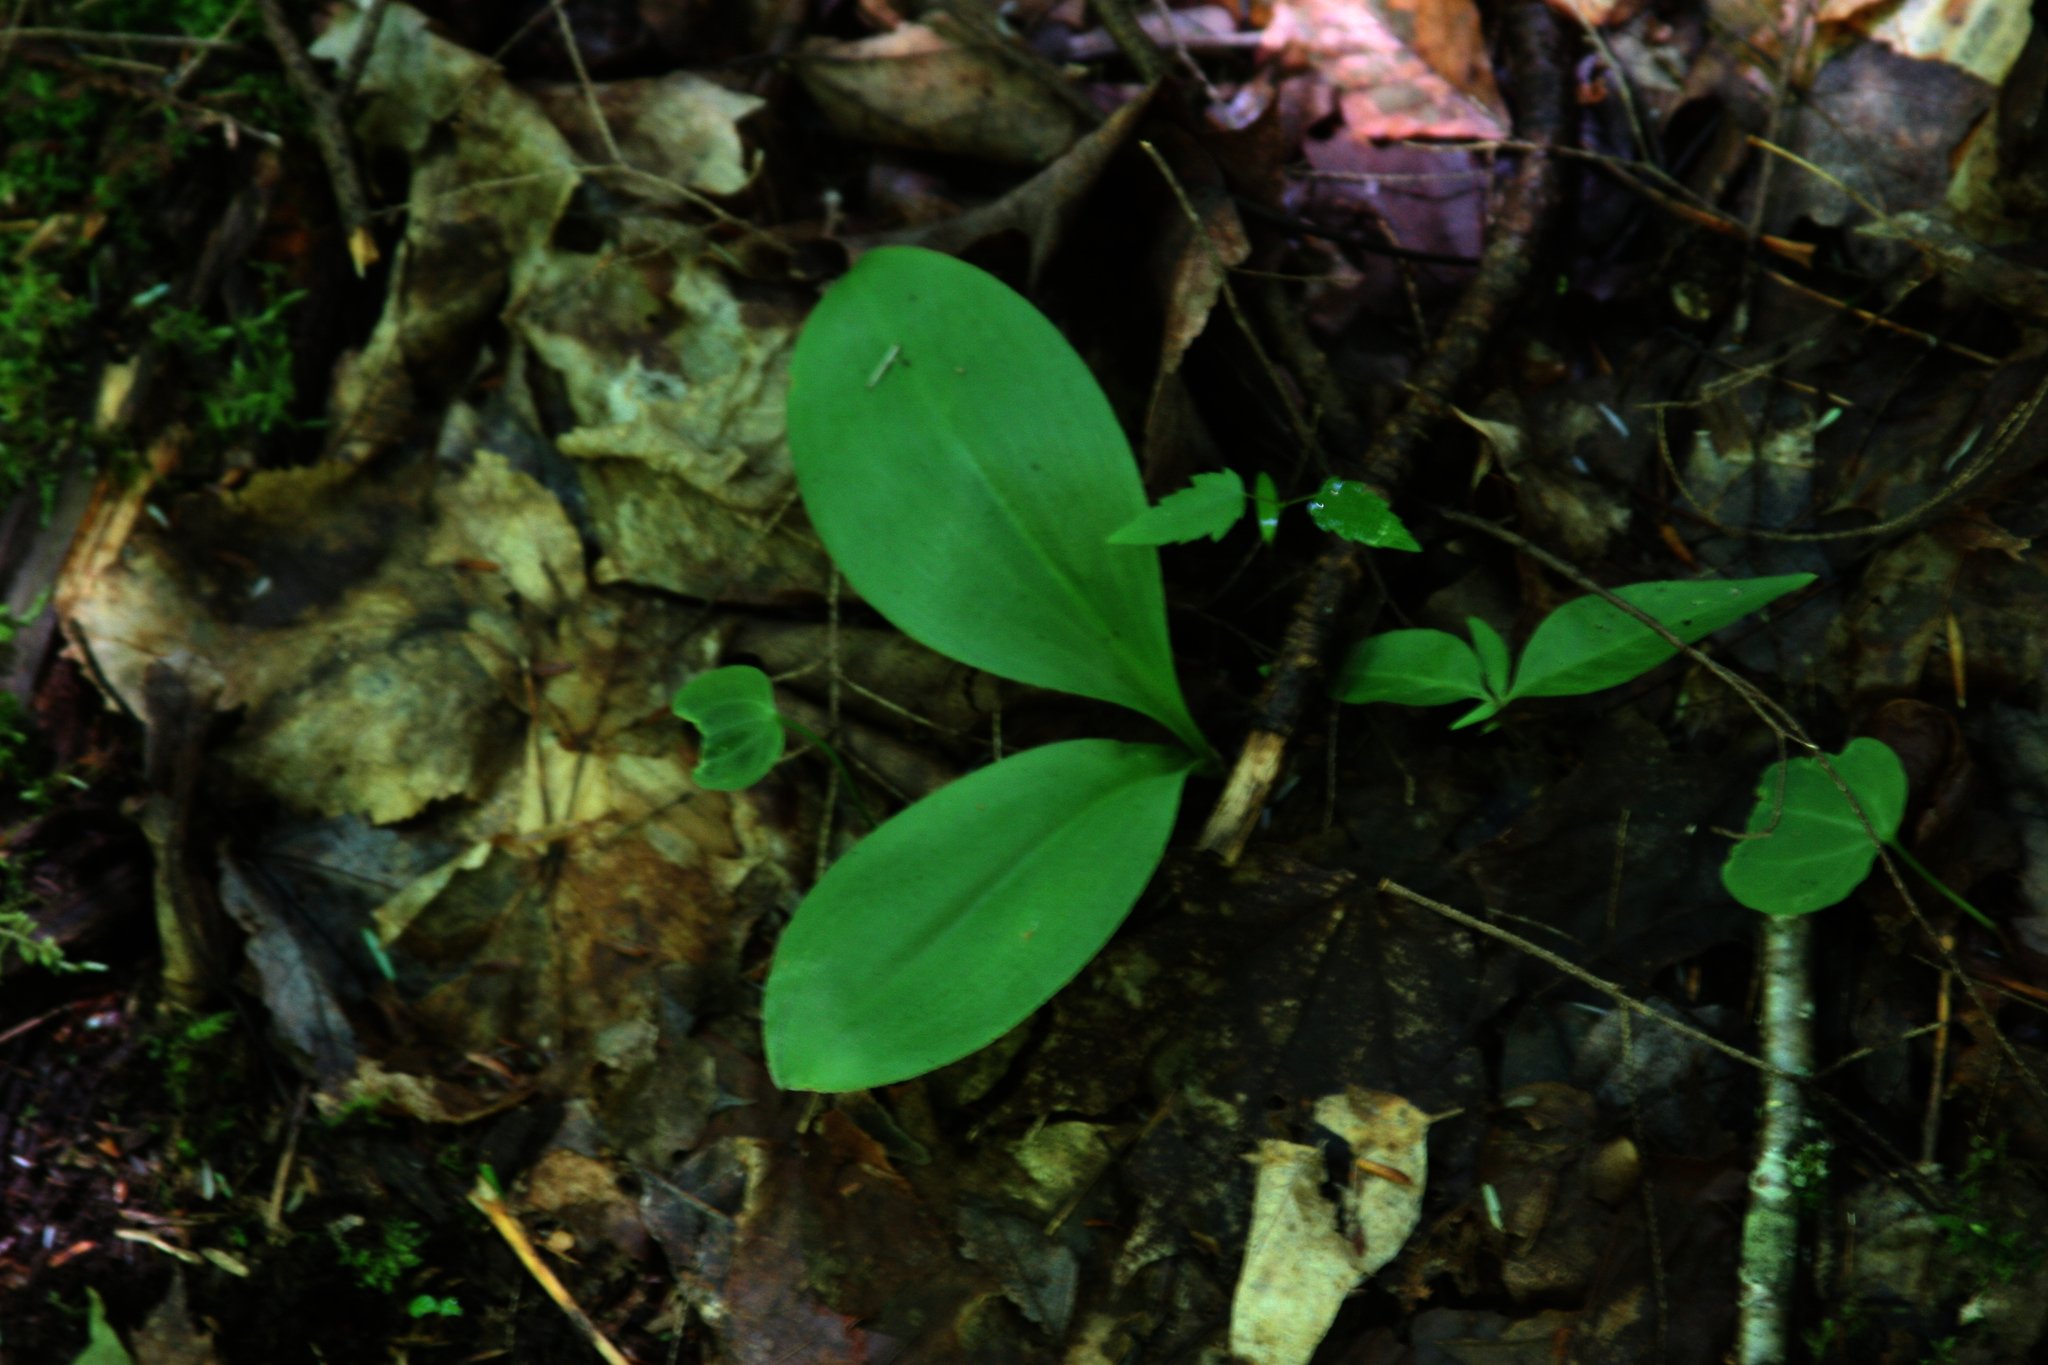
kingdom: Plantae
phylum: Tracheophyta
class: Liliopsida
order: Liliales
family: Liliaceae
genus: Clintonia
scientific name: Clintonia borealis
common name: Yellow clintonia
